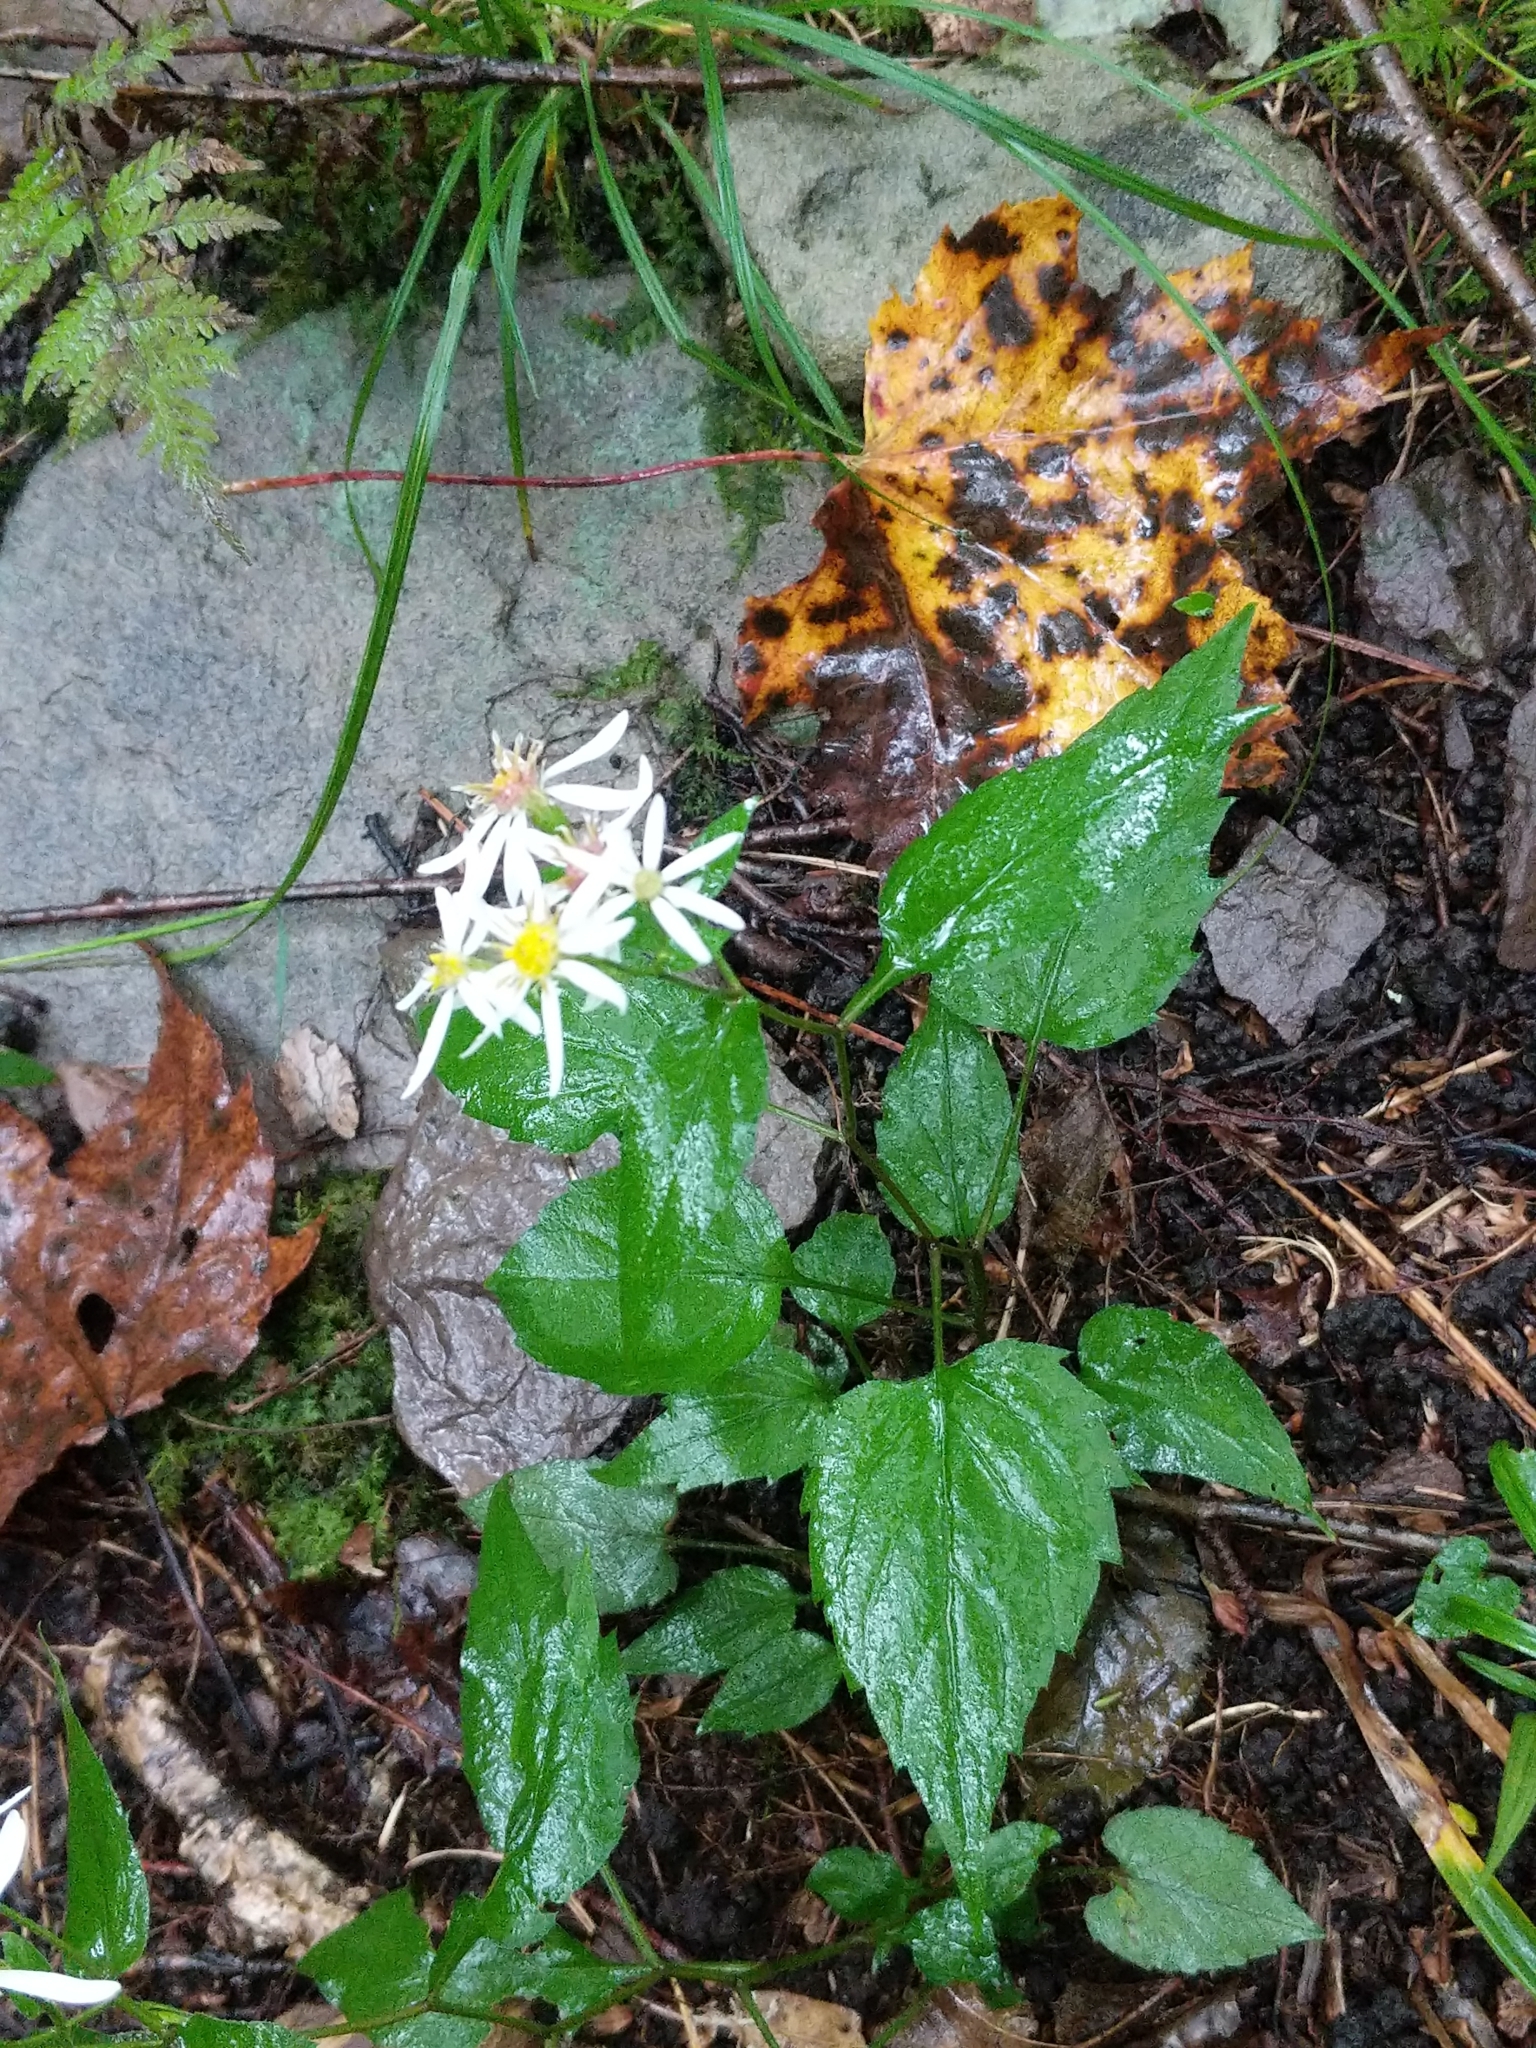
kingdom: Plantae
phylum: Tracheophyta
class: Magnoliopsida
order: Asterales
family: Asteraceae
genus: Eurybia
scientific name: Eurybia divaricata
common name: White wood aster
